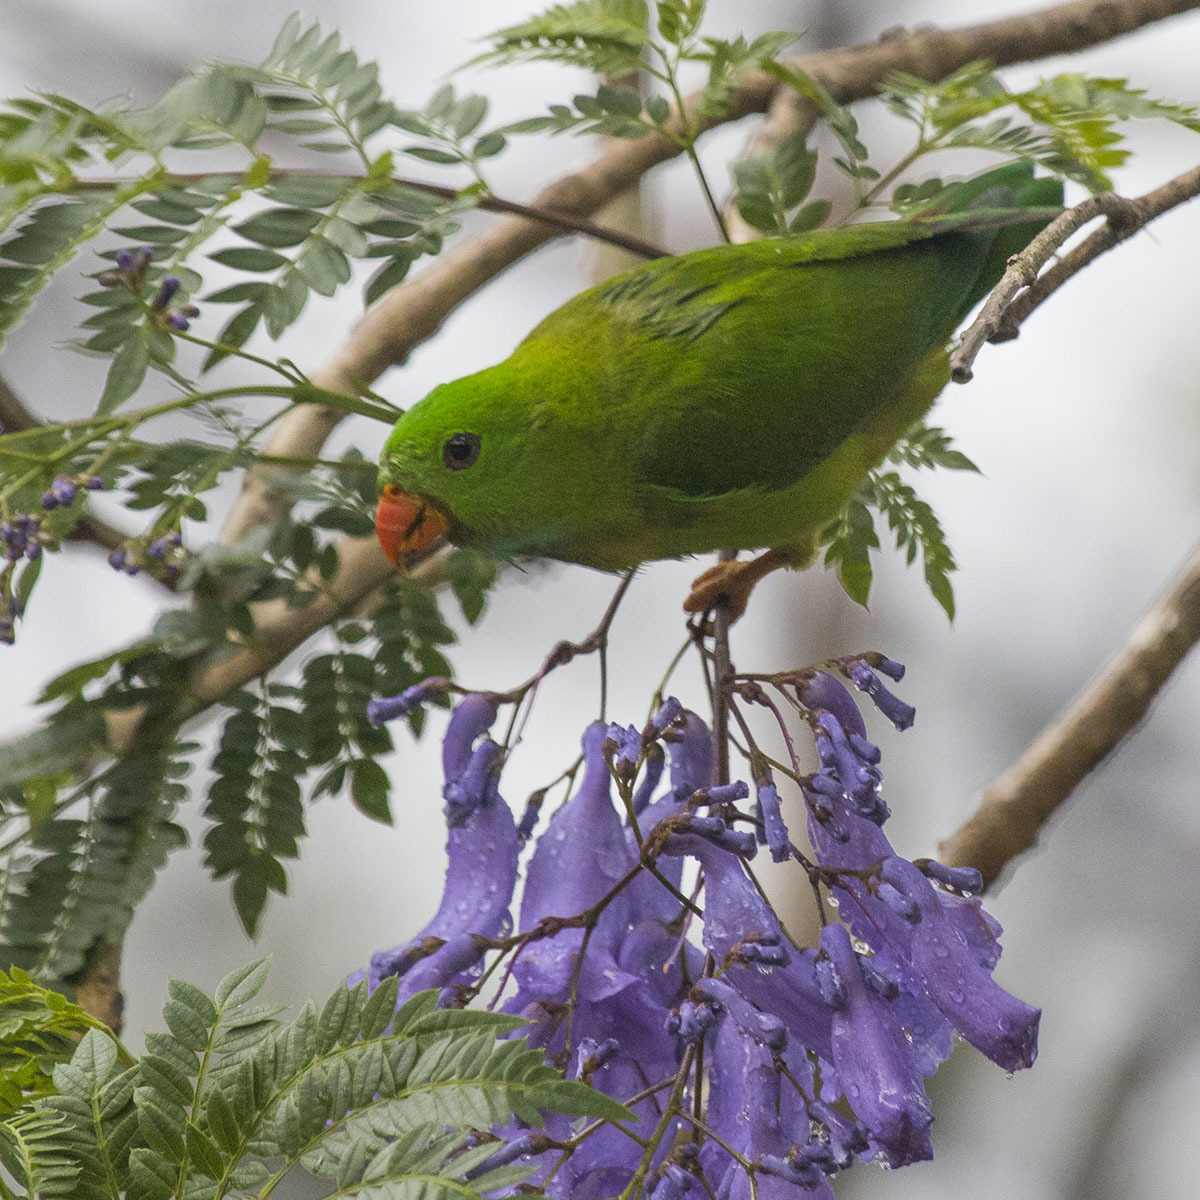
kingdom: Animalia
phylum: Chordata
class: Aves
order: Psittaciformes
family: Psittacidae
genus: Loriculus
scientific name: Loriculus vernalis
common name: Vernal hanging parrot
